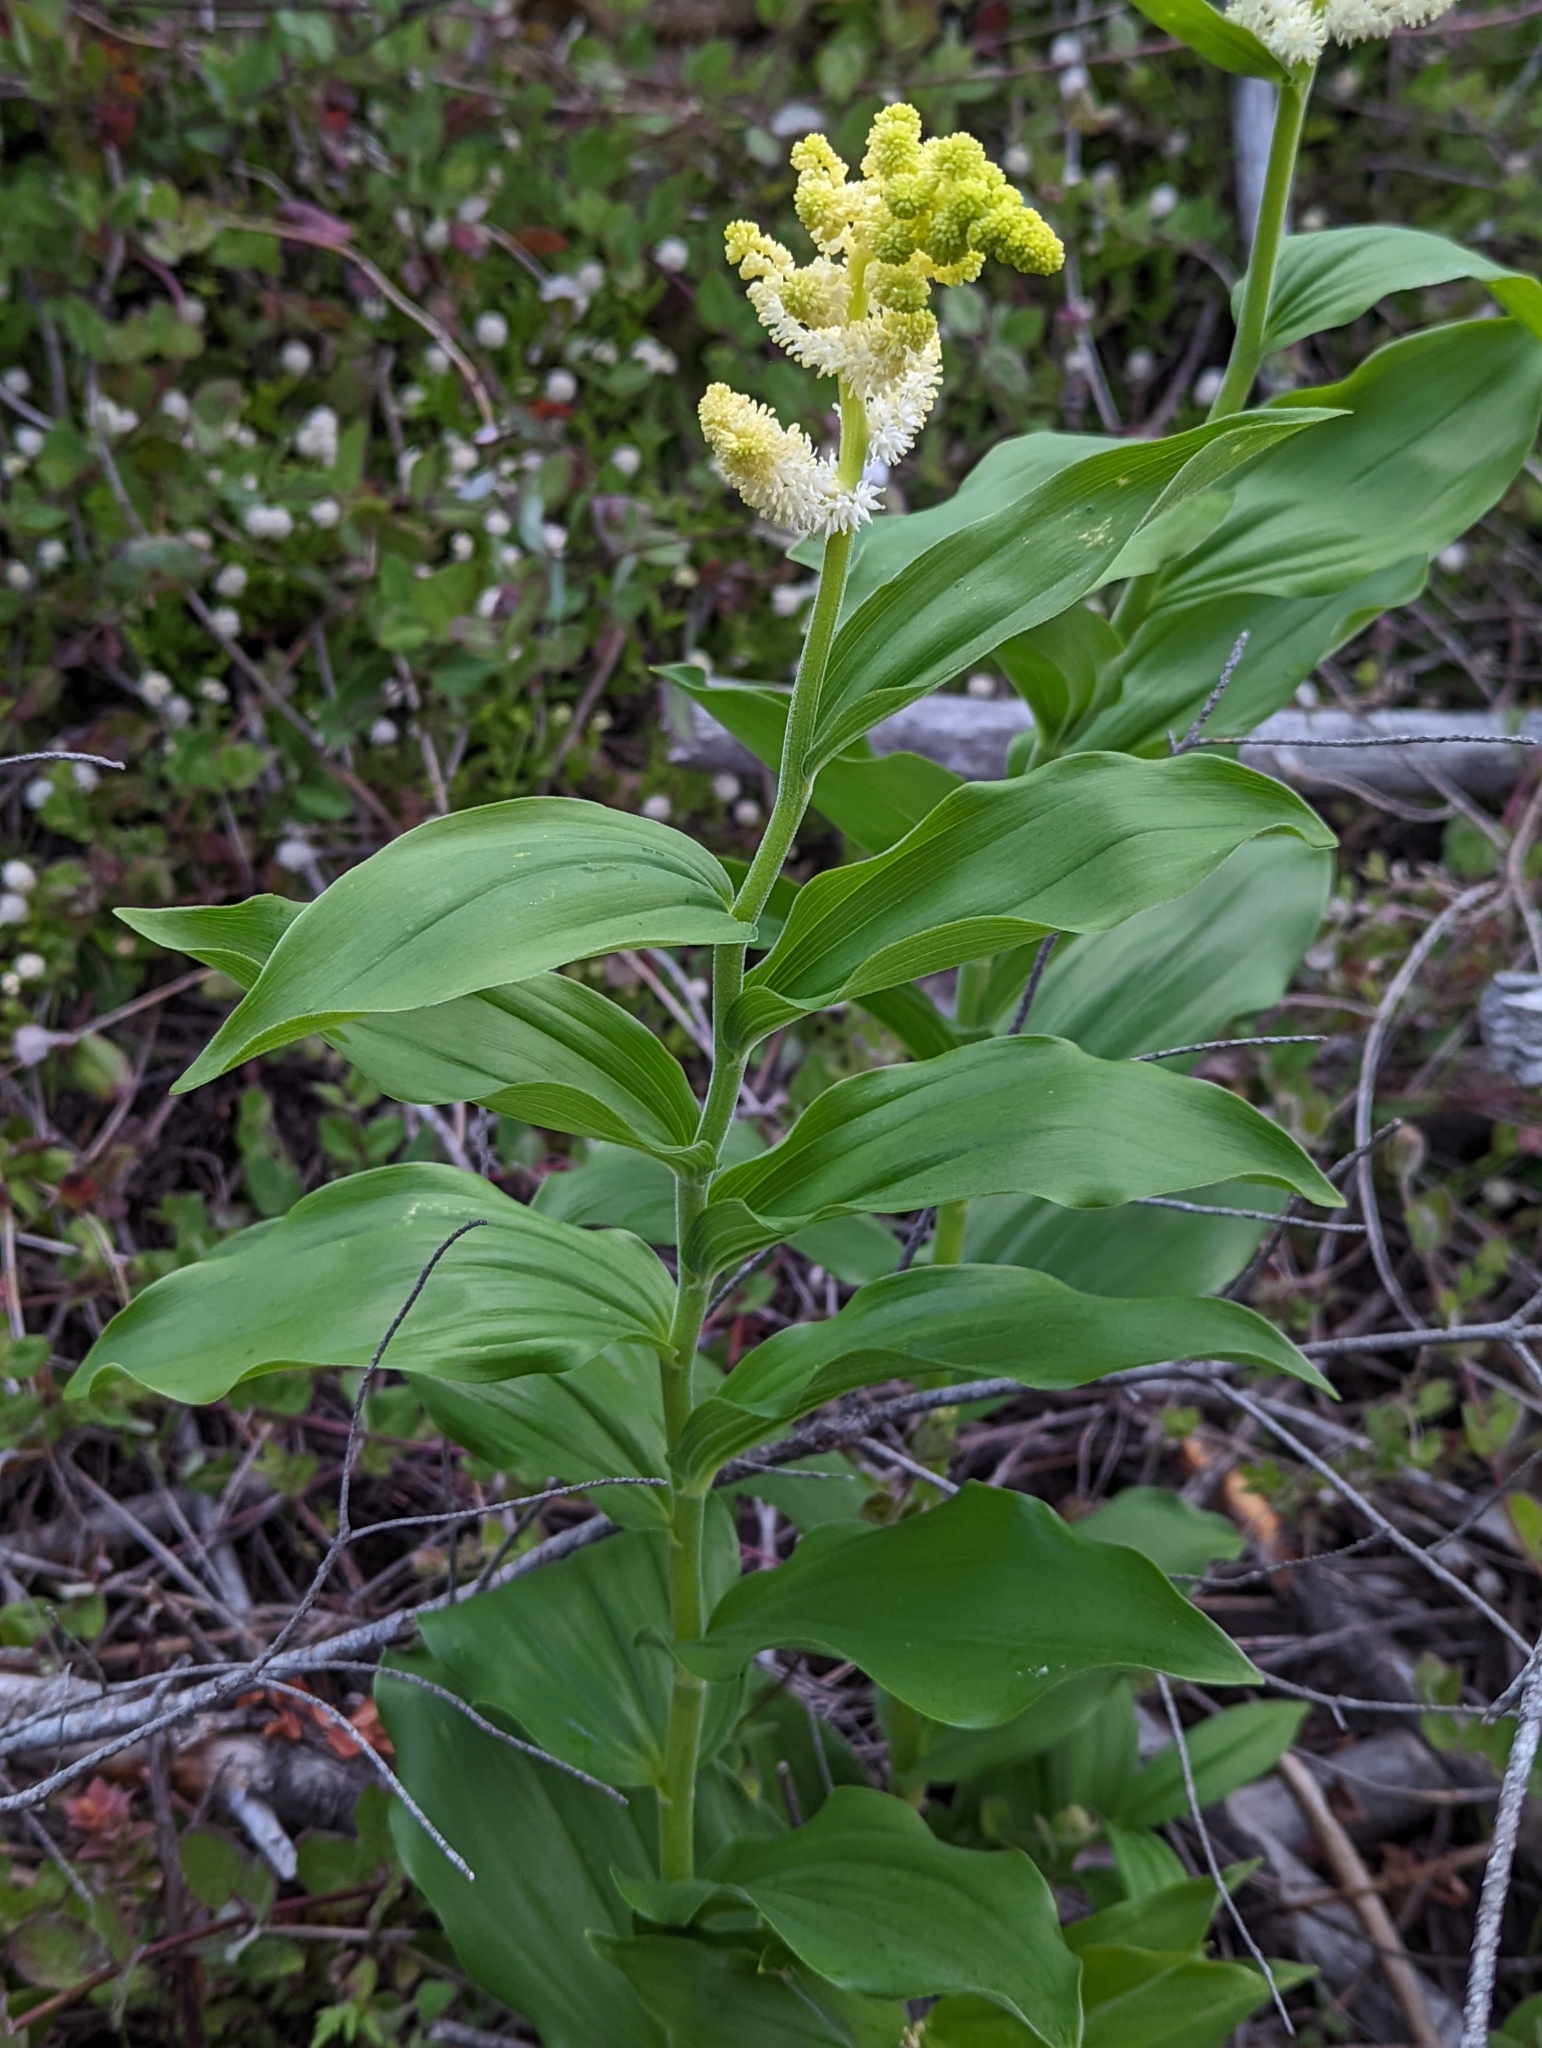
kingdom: Plantae
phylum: Tracheophyta
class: Liliopsida
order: Asparagales
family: Asparagaceae
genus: Maianthemum
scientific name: Maianthemum racemosum
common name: False spikenard
